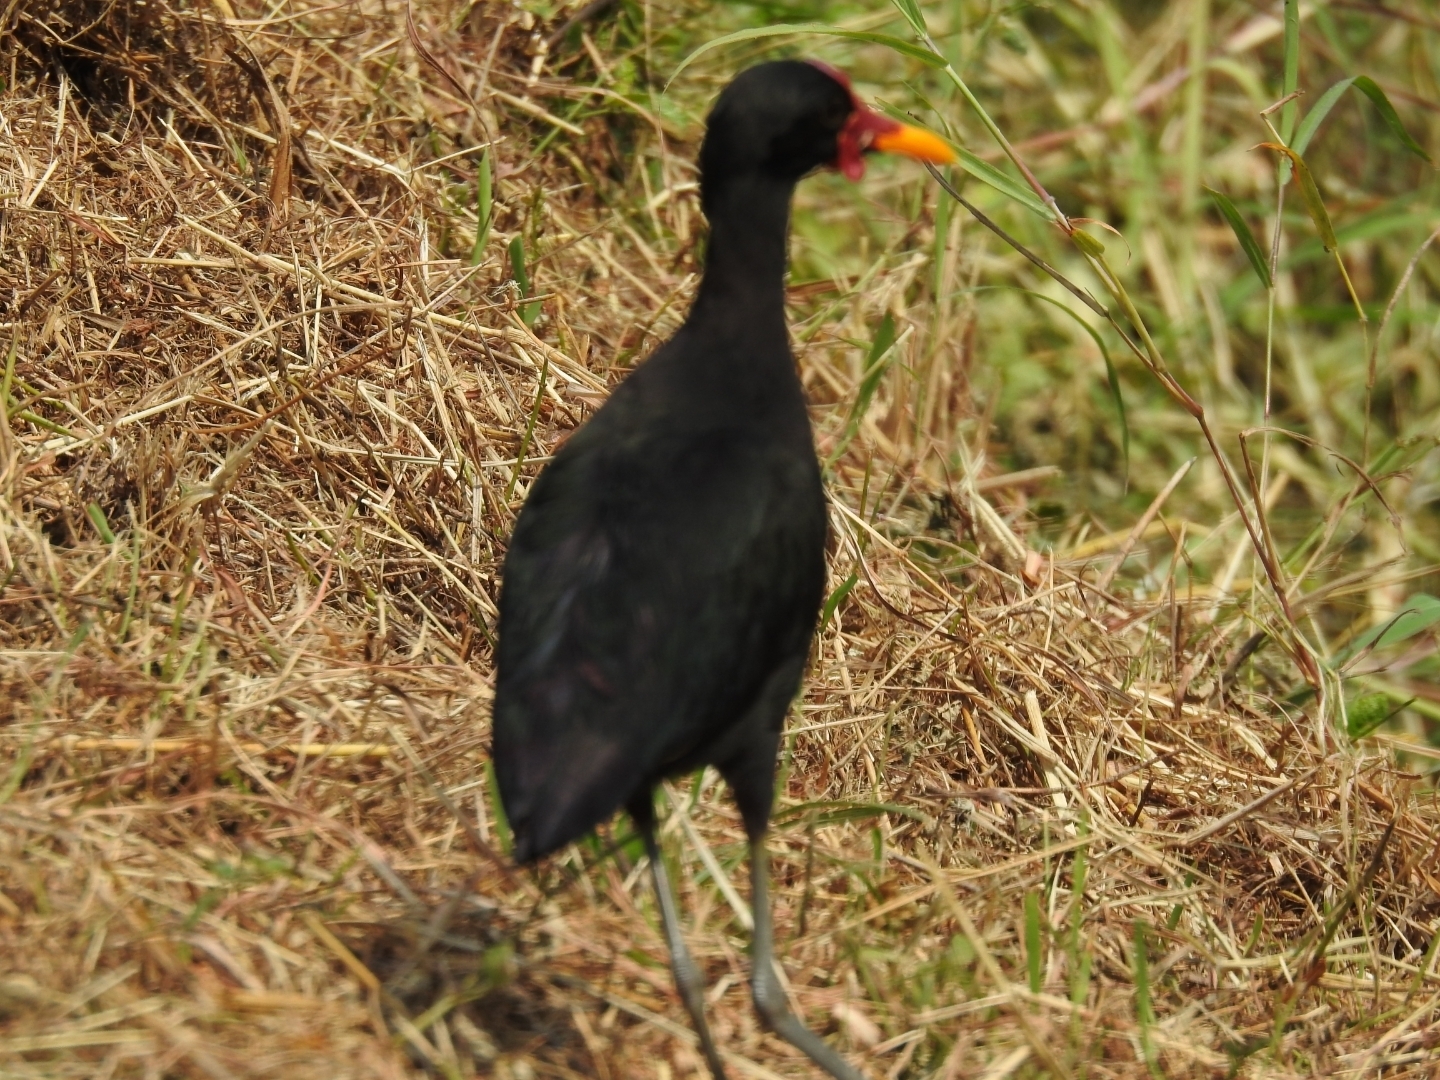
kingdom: Animalia
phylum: Chordata
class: Aves
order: Charadriiformes
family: Jacanidae
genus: Jacana
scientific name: Jacana jacana
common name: Wattled jacana
